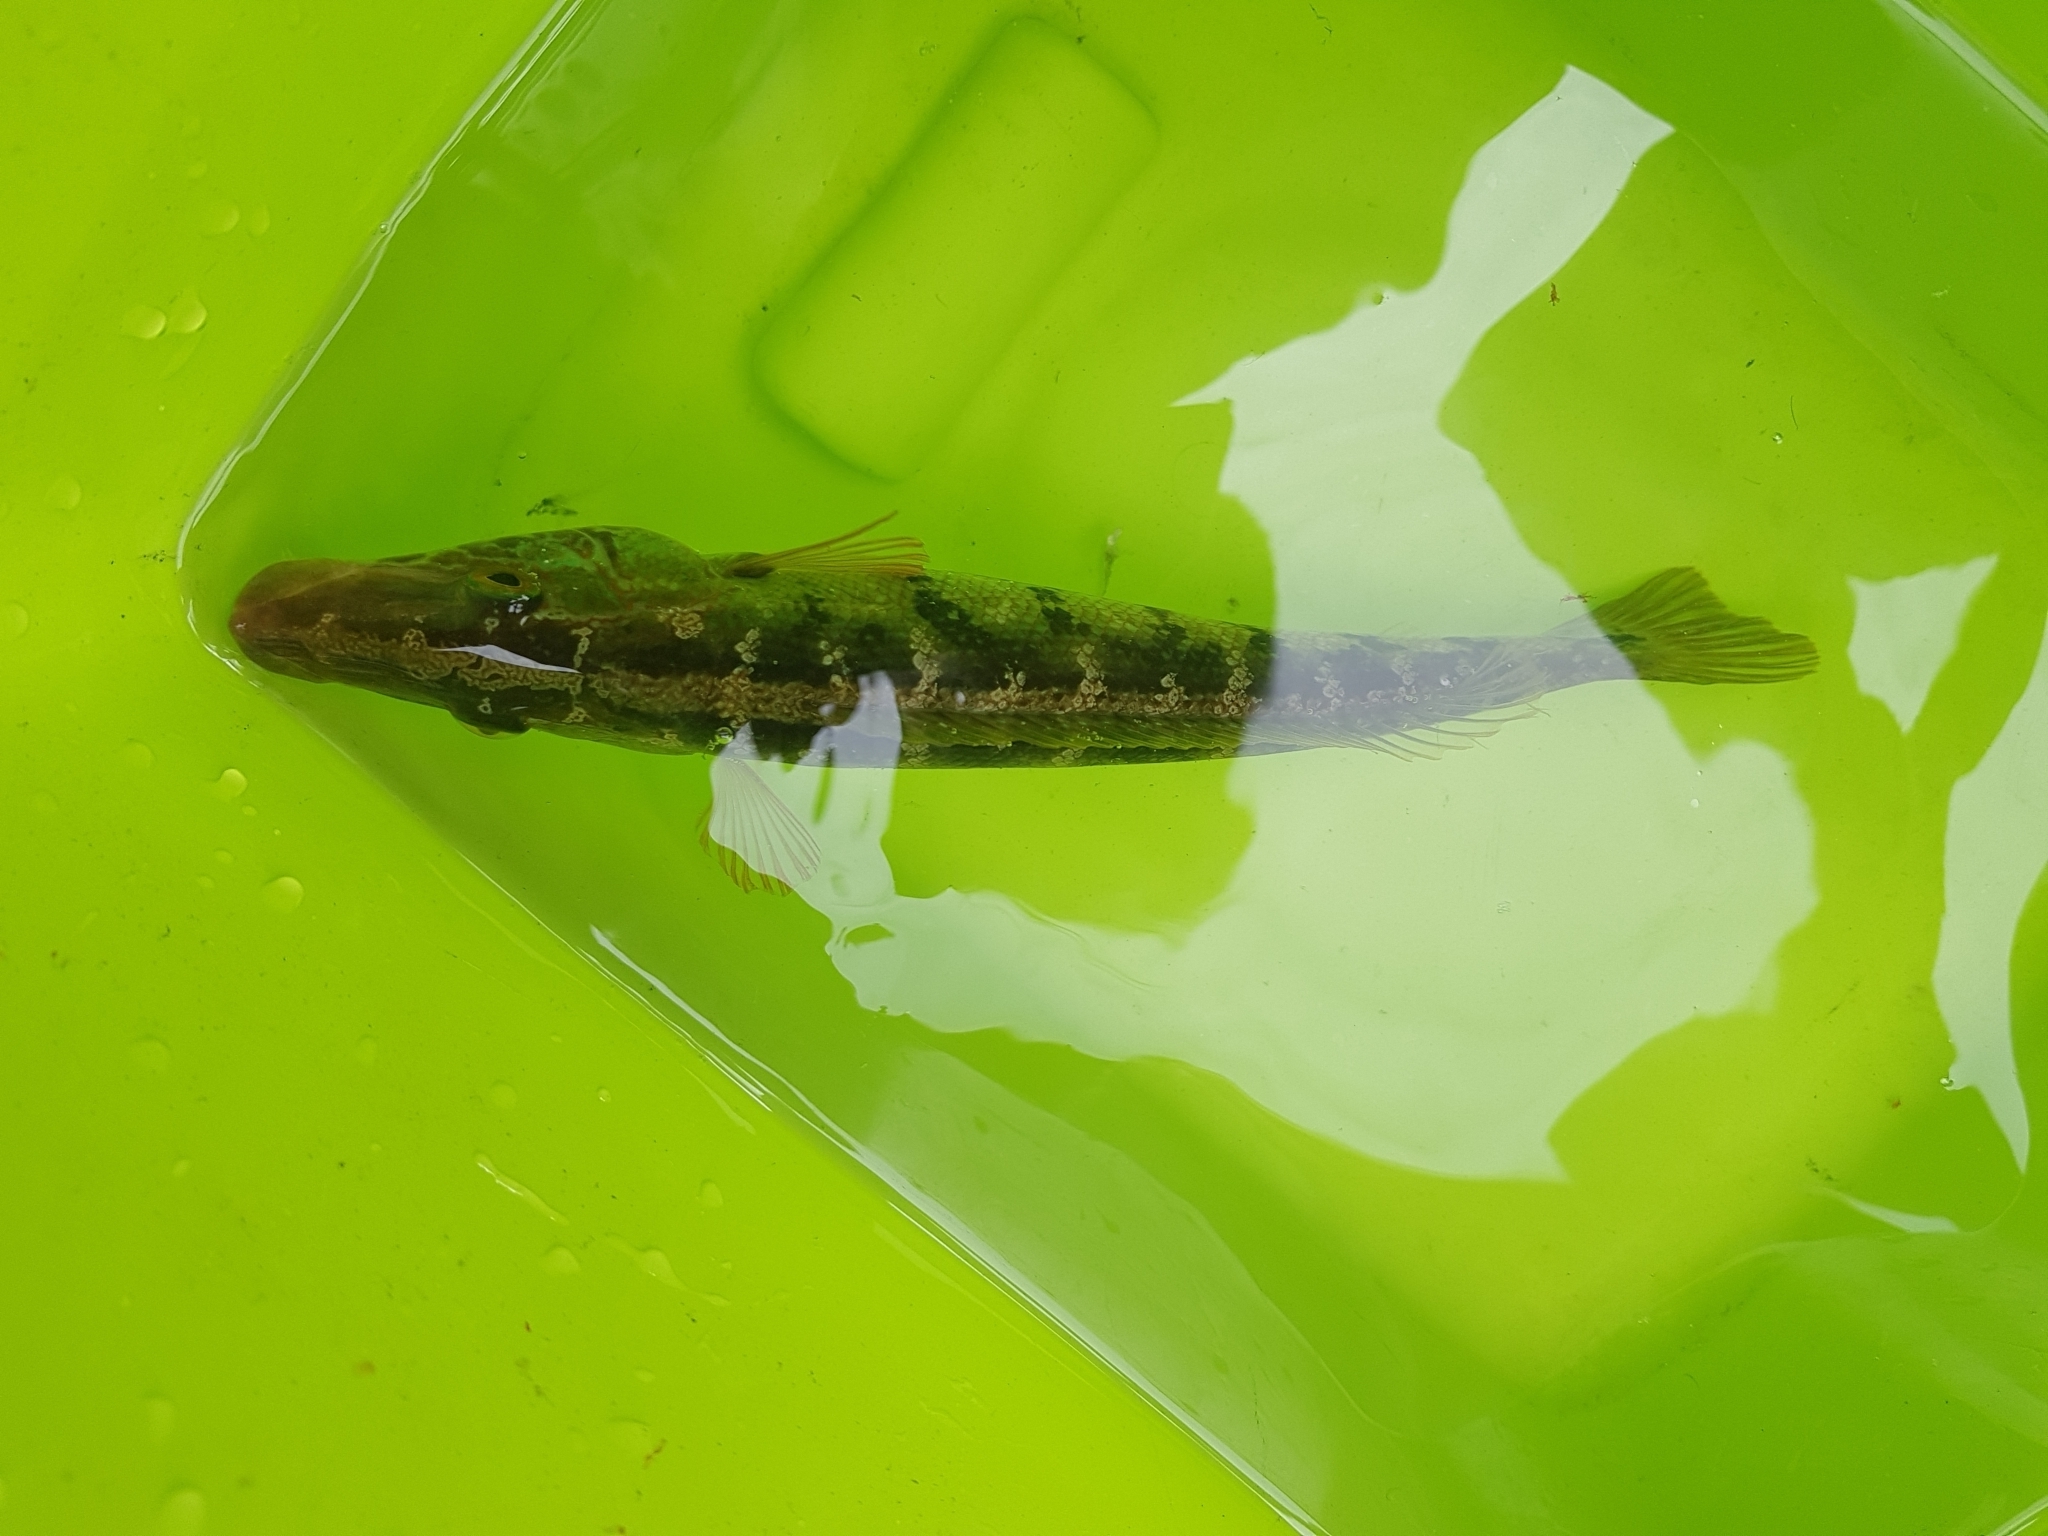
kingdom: Animalia
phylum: Chordata
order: Perciformes
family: Odacidae
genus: Haletta
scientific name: Haletta semifasciata
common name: Blue rock whiting
